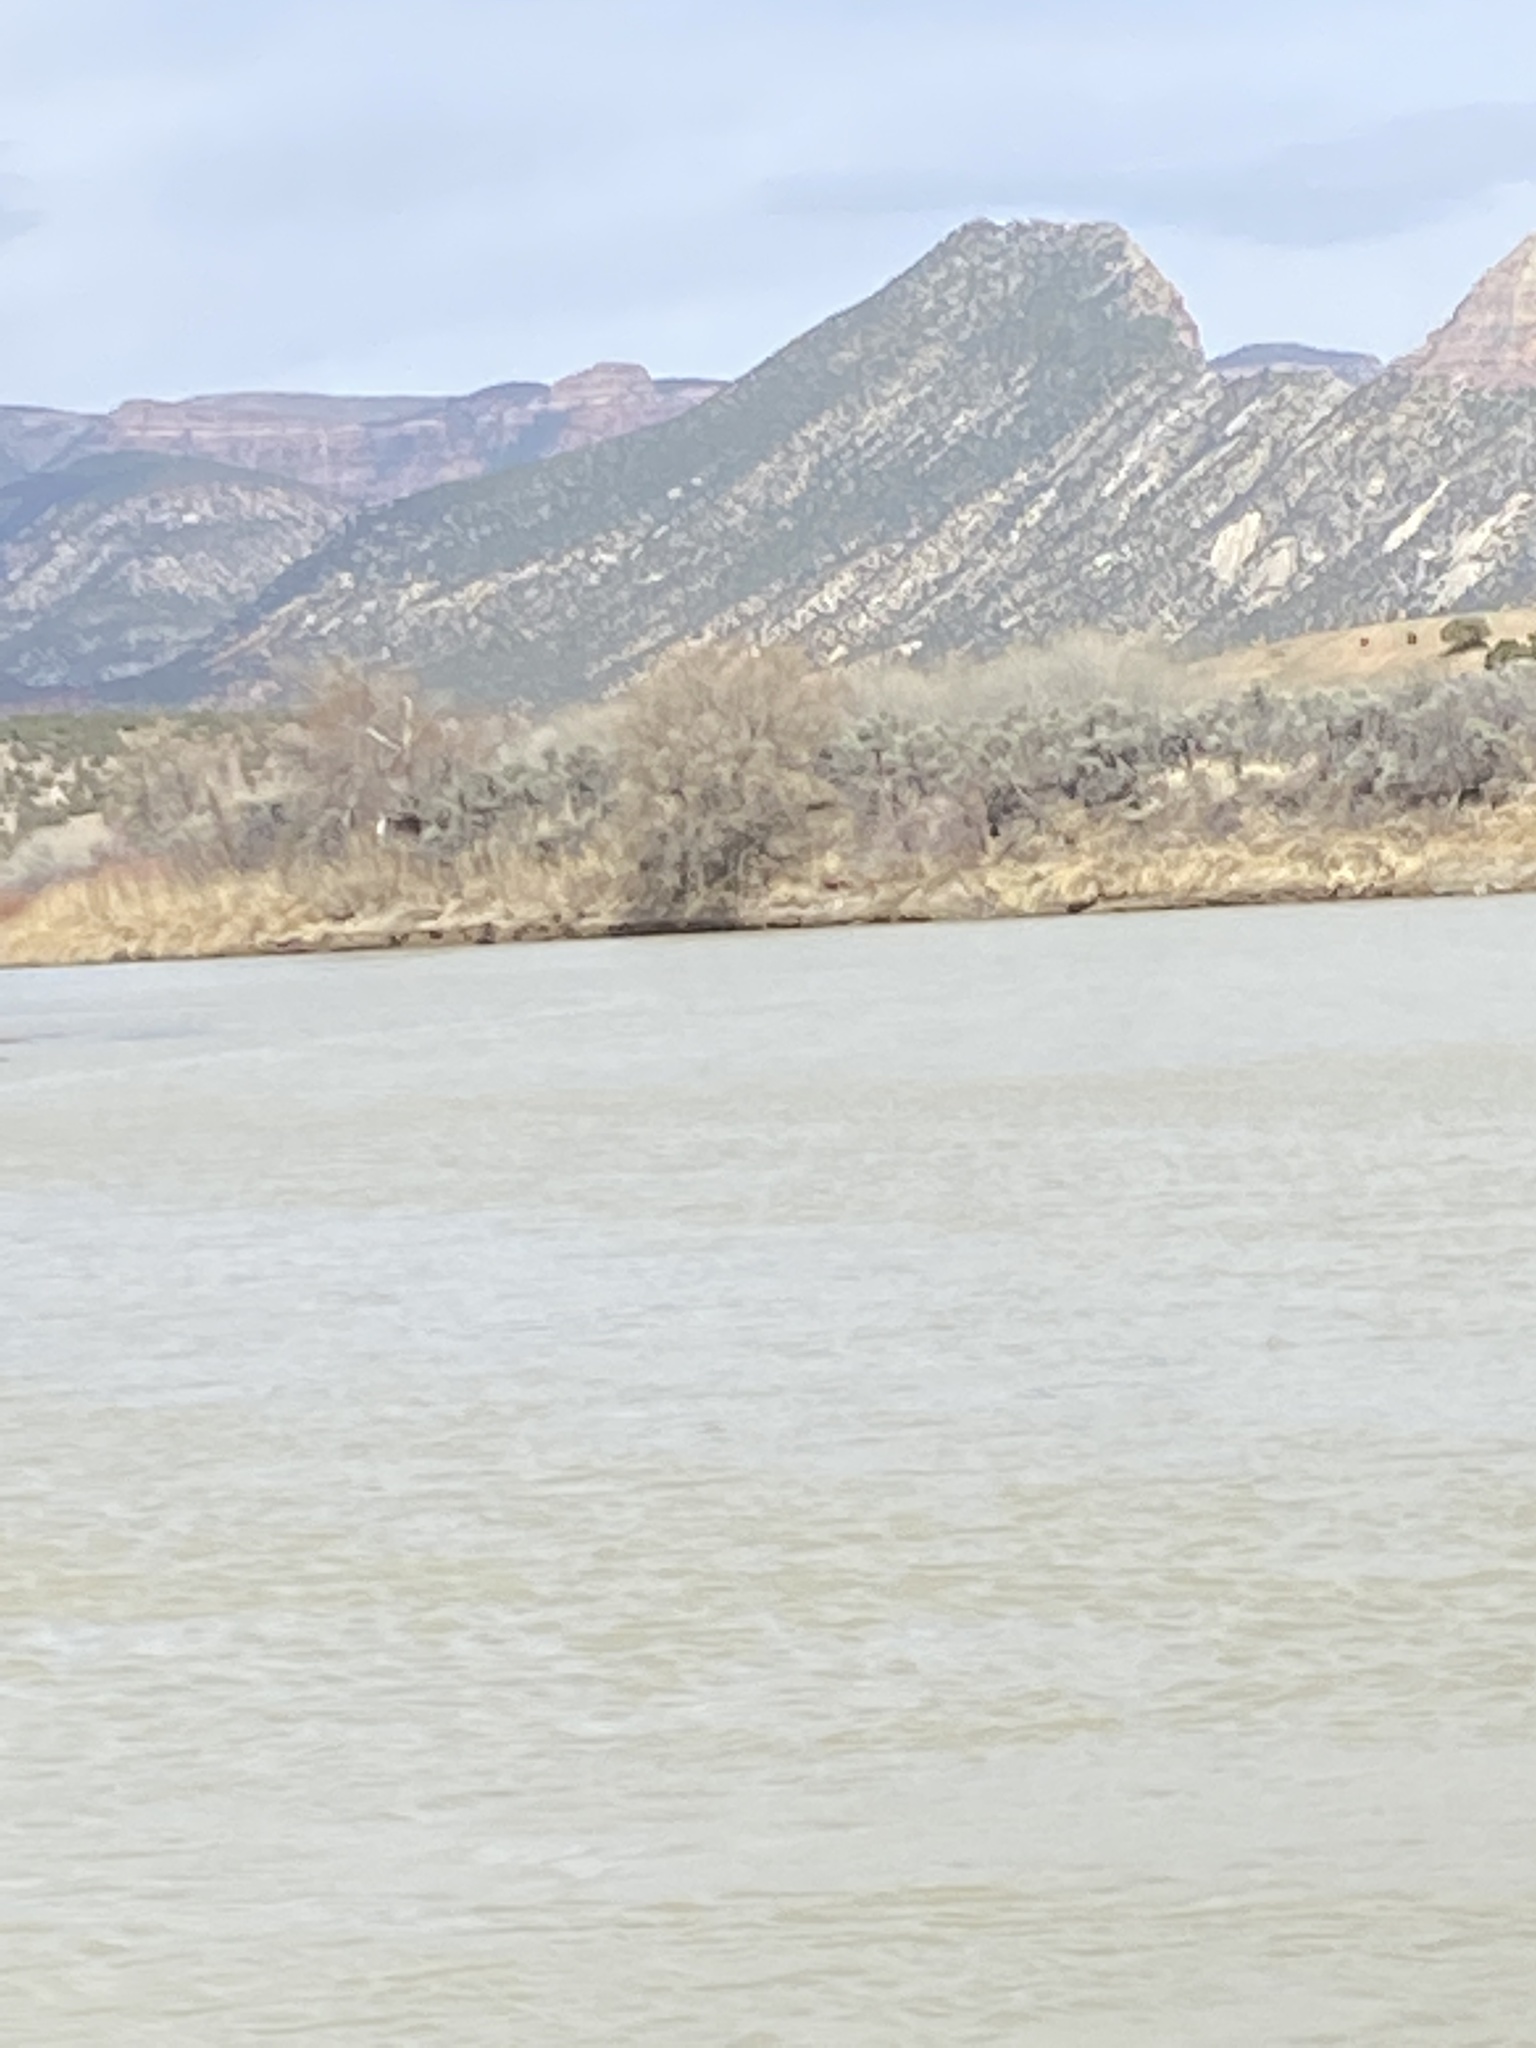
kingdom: Animalia
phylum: Chordata
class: Mammalia
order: Artiodactyla
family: Cervidae
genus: Alces
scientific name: Alces alces
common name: Moose
